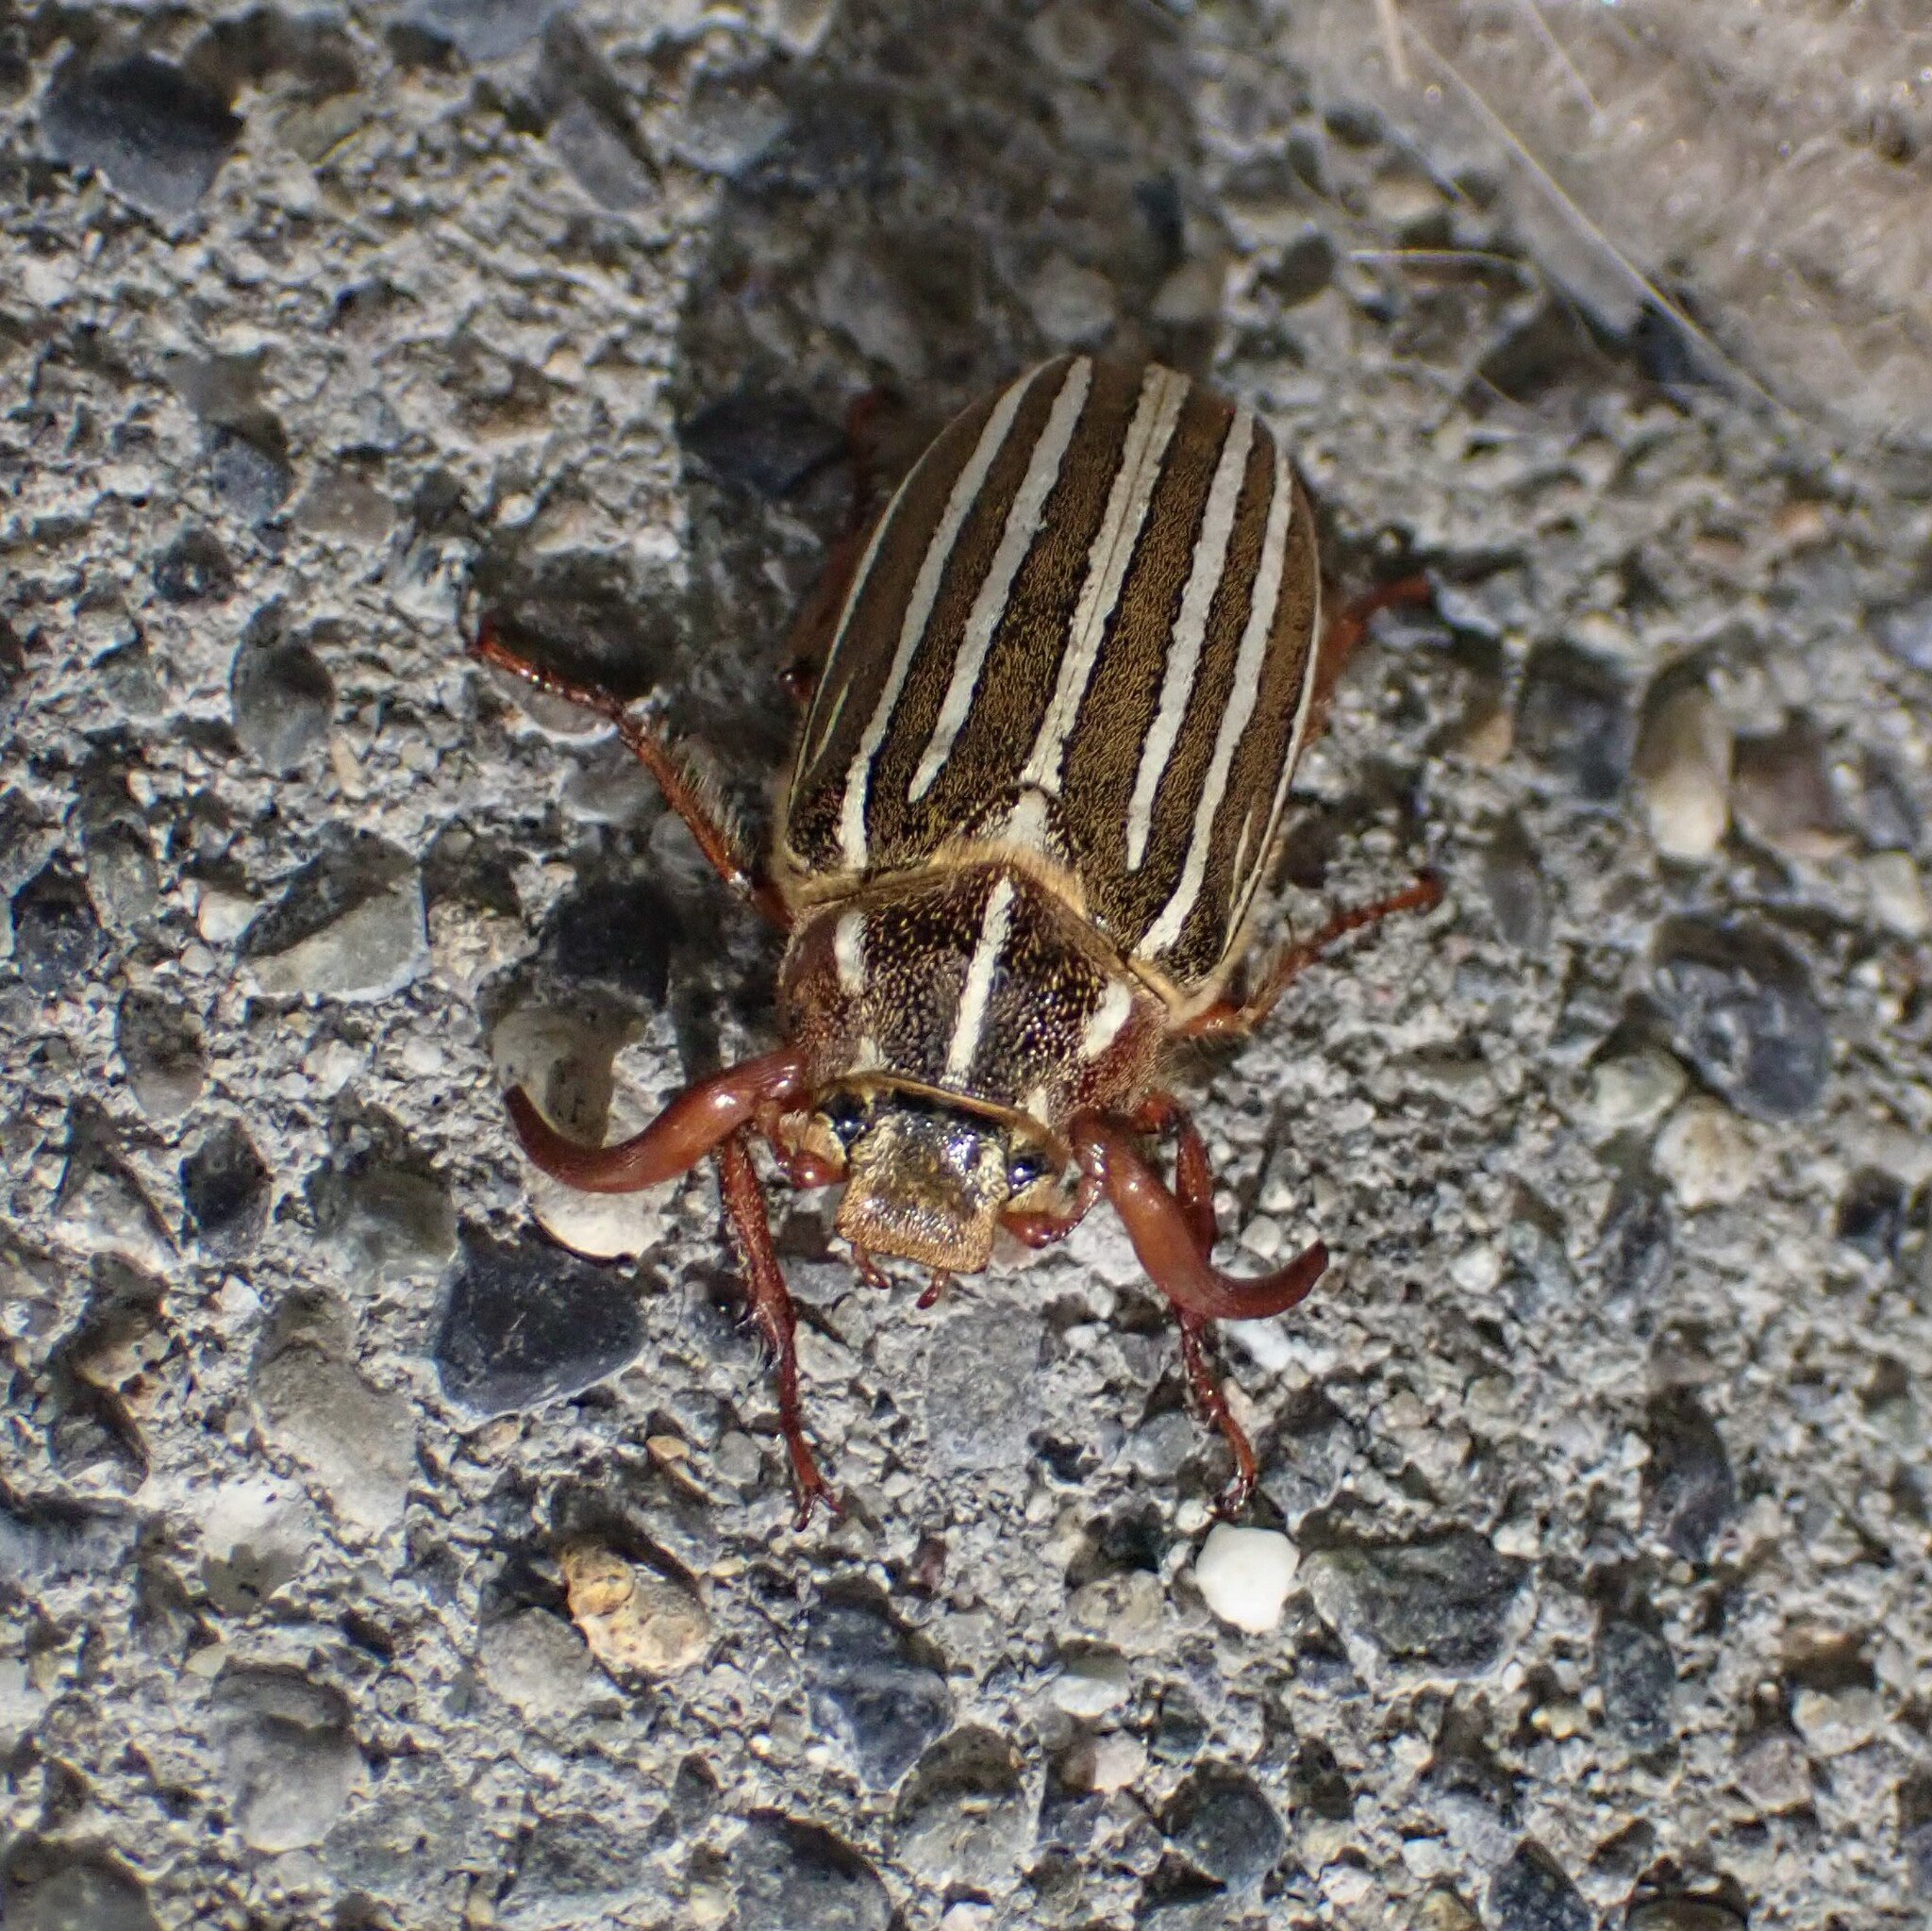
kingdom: Animalia
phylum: Arthropoda
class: Insecta
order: Coleoptera
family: Scarabaeidae
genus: Polyphylla
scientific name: Polyphylla crinita
